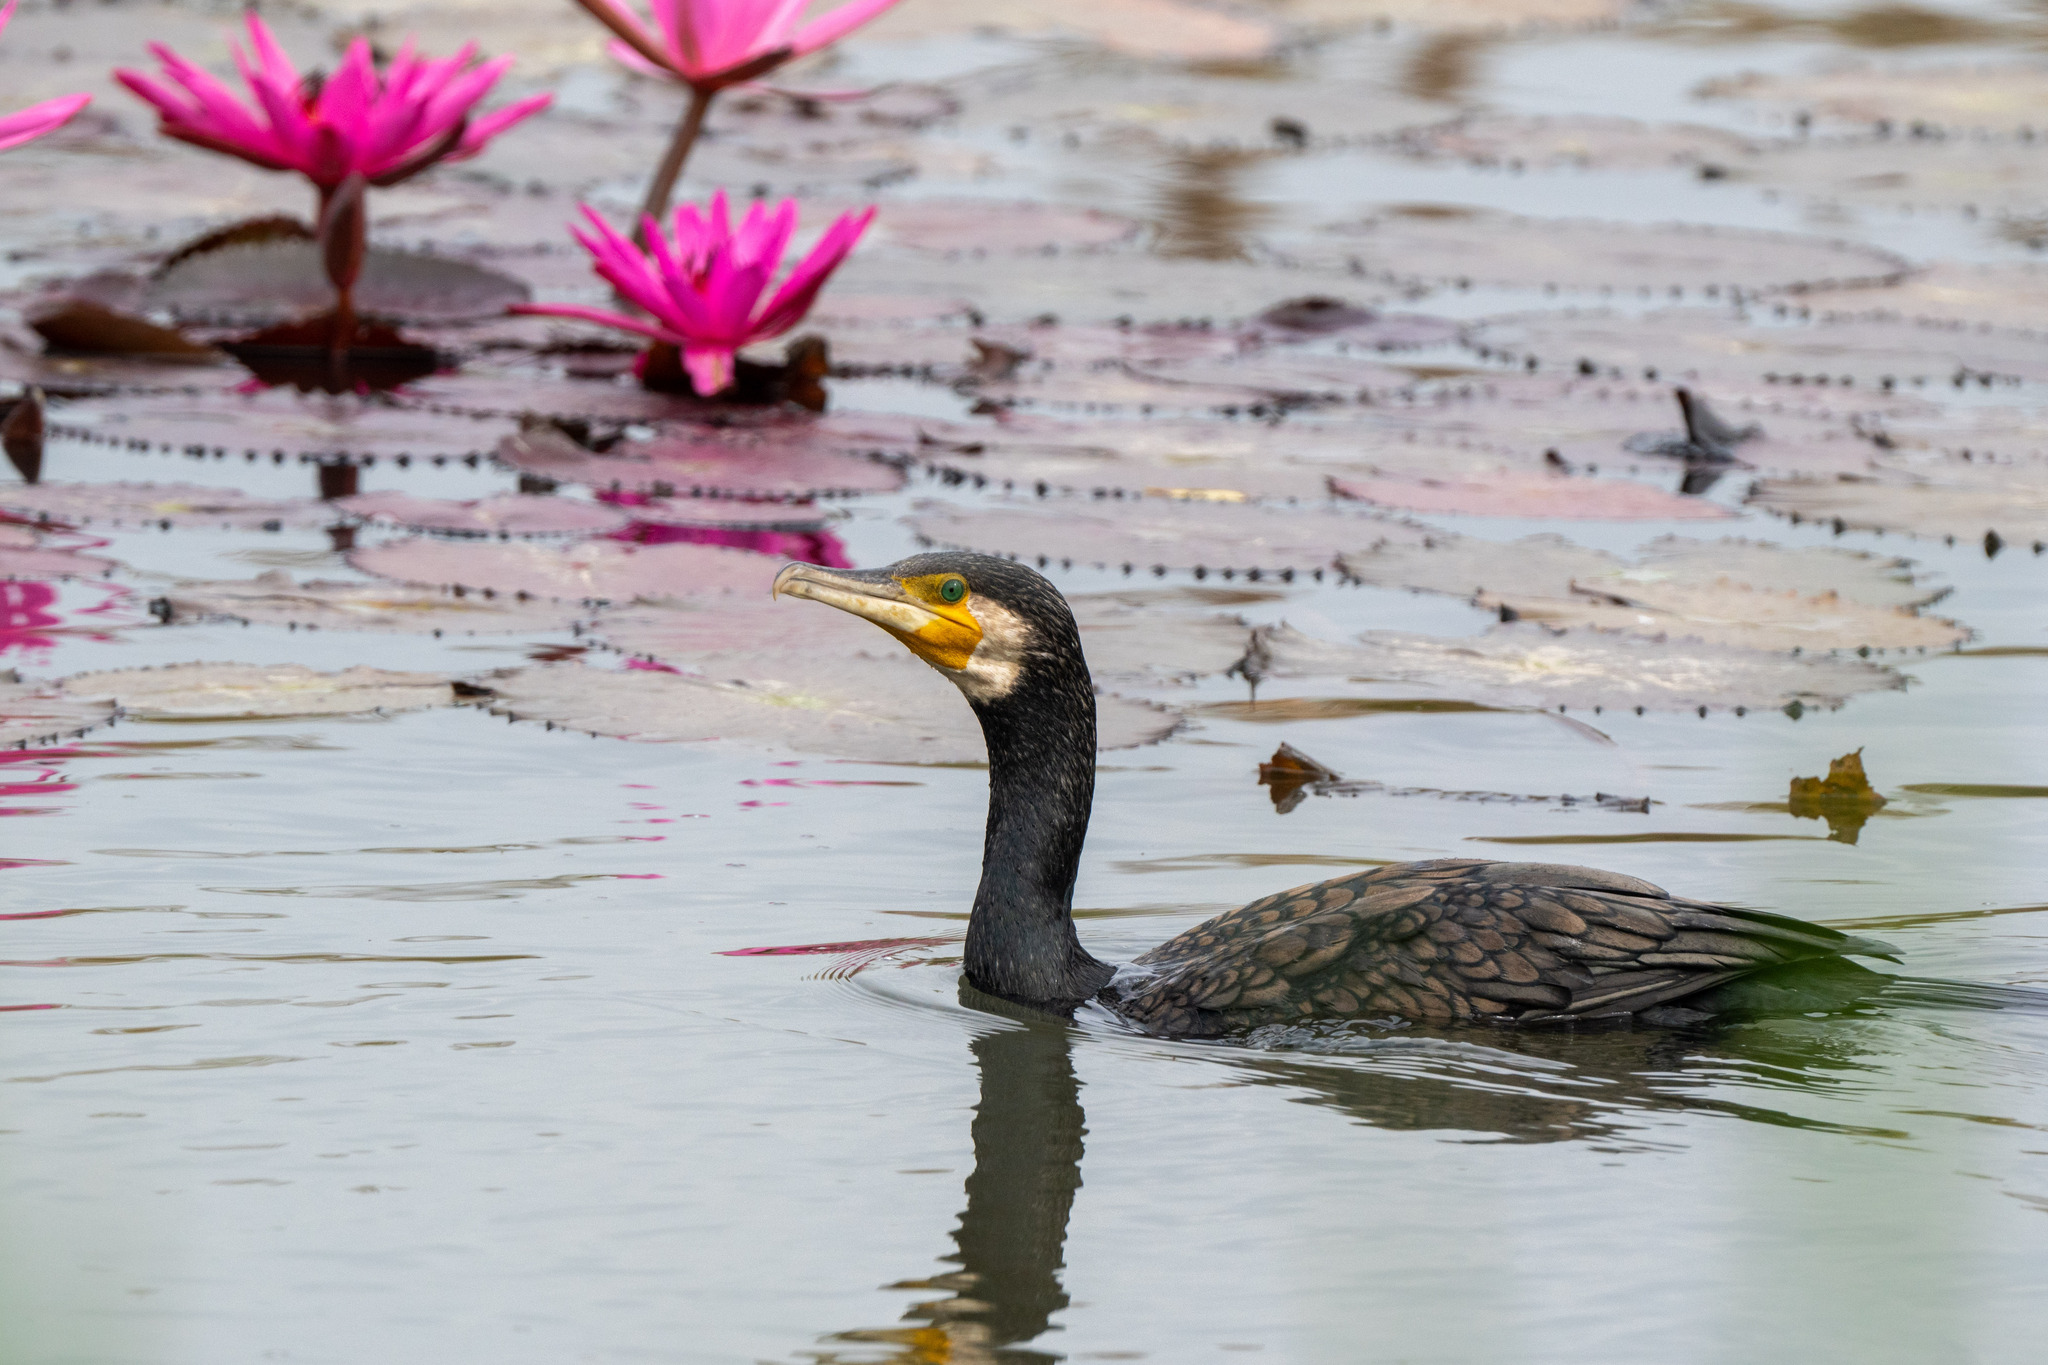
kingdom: Animalia
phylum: Chordata
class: Aves
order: Suliformes
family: Phalacrocoracidae
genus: Phalacrocorax
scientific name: Phalacrocorax carbo
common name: Great cormorant
